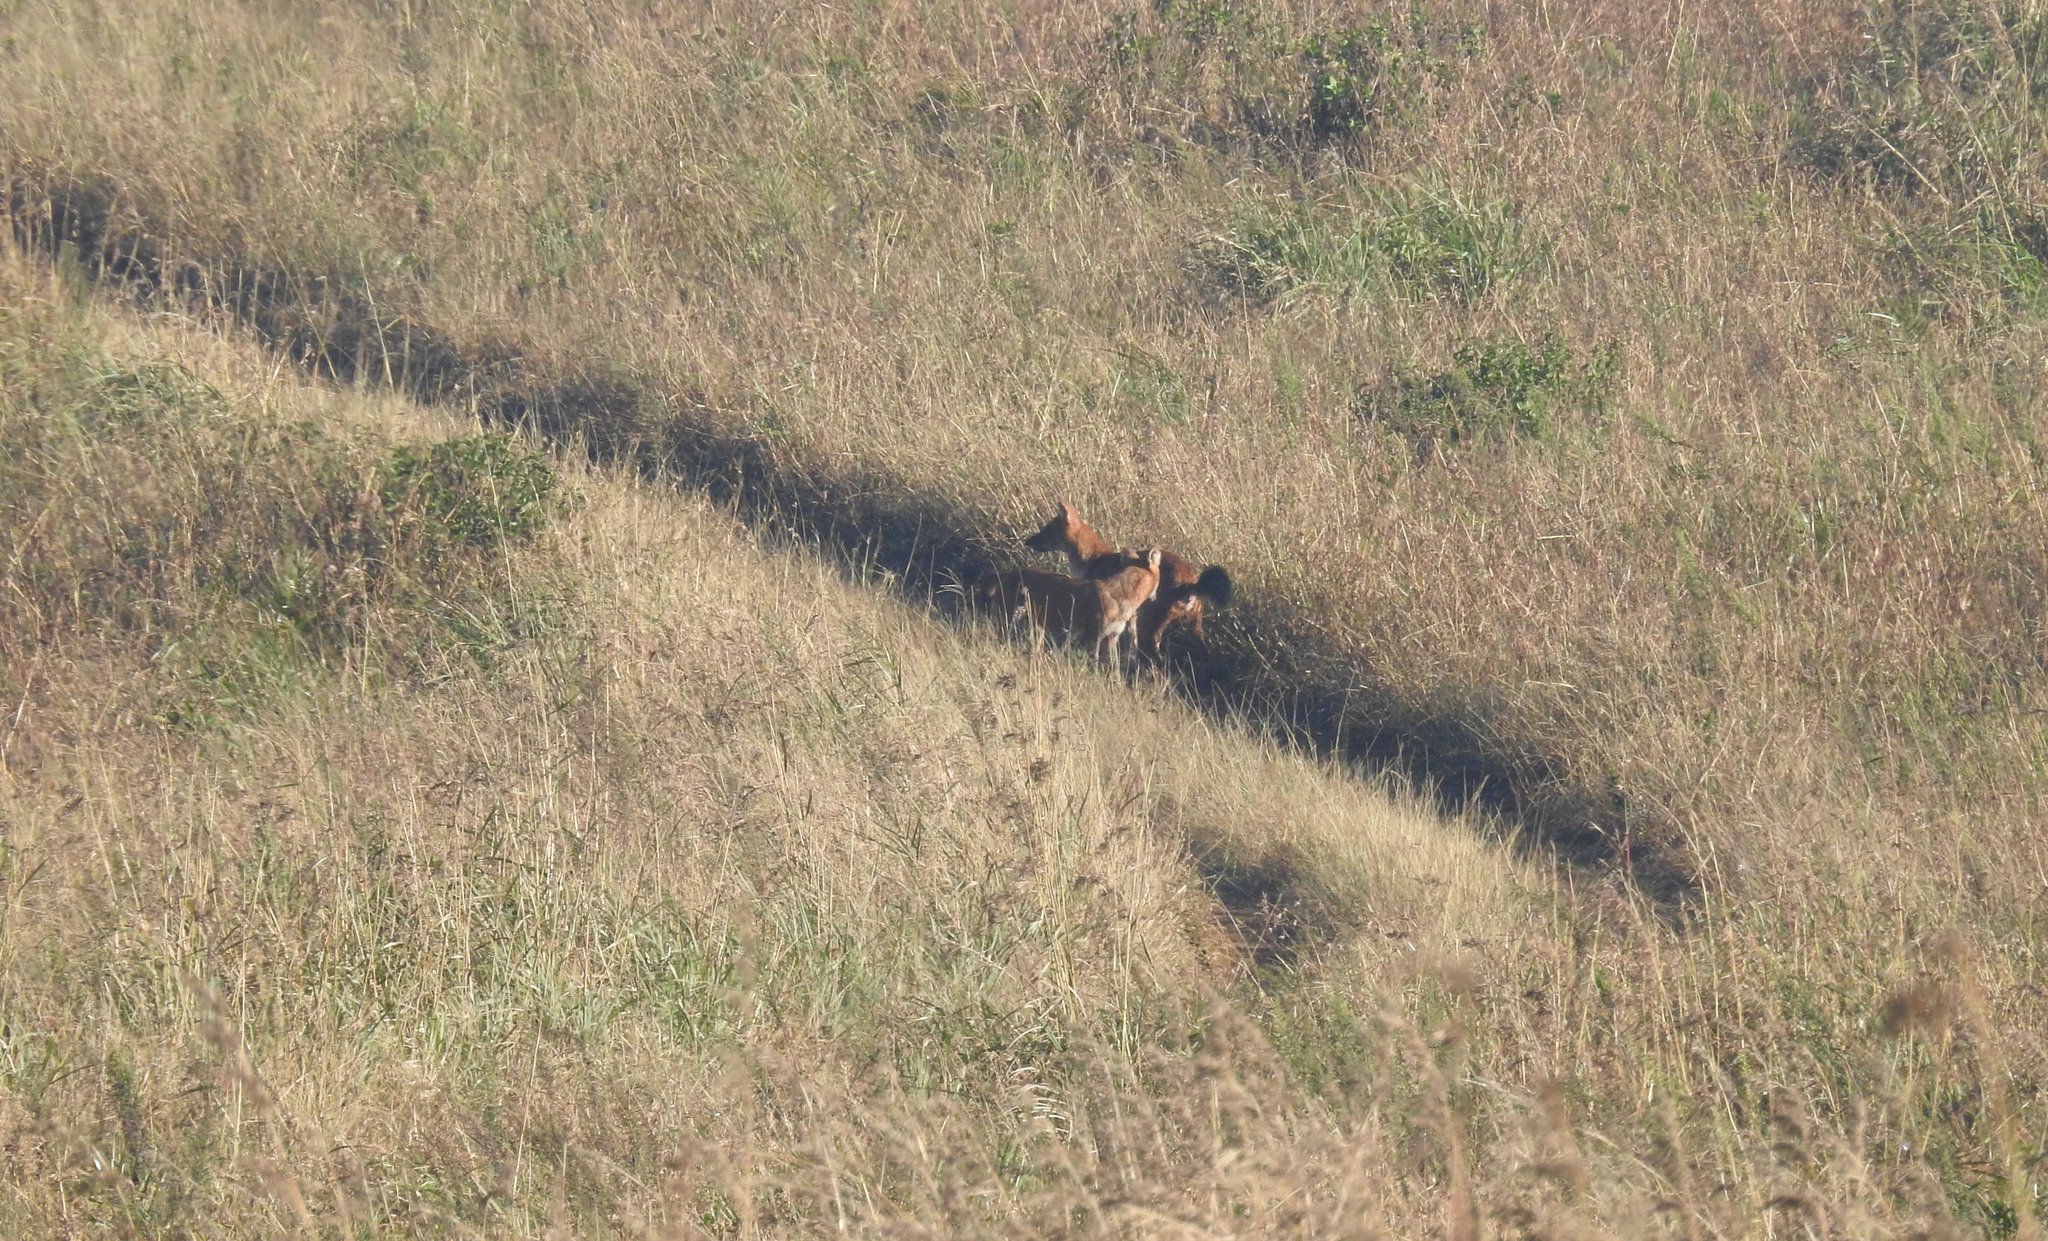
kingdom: Animalia
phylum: Chordata
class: Mammalia
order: Carnivora
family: Canidae
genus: Cuon
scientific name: Cuon alpinus
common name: Dhole
